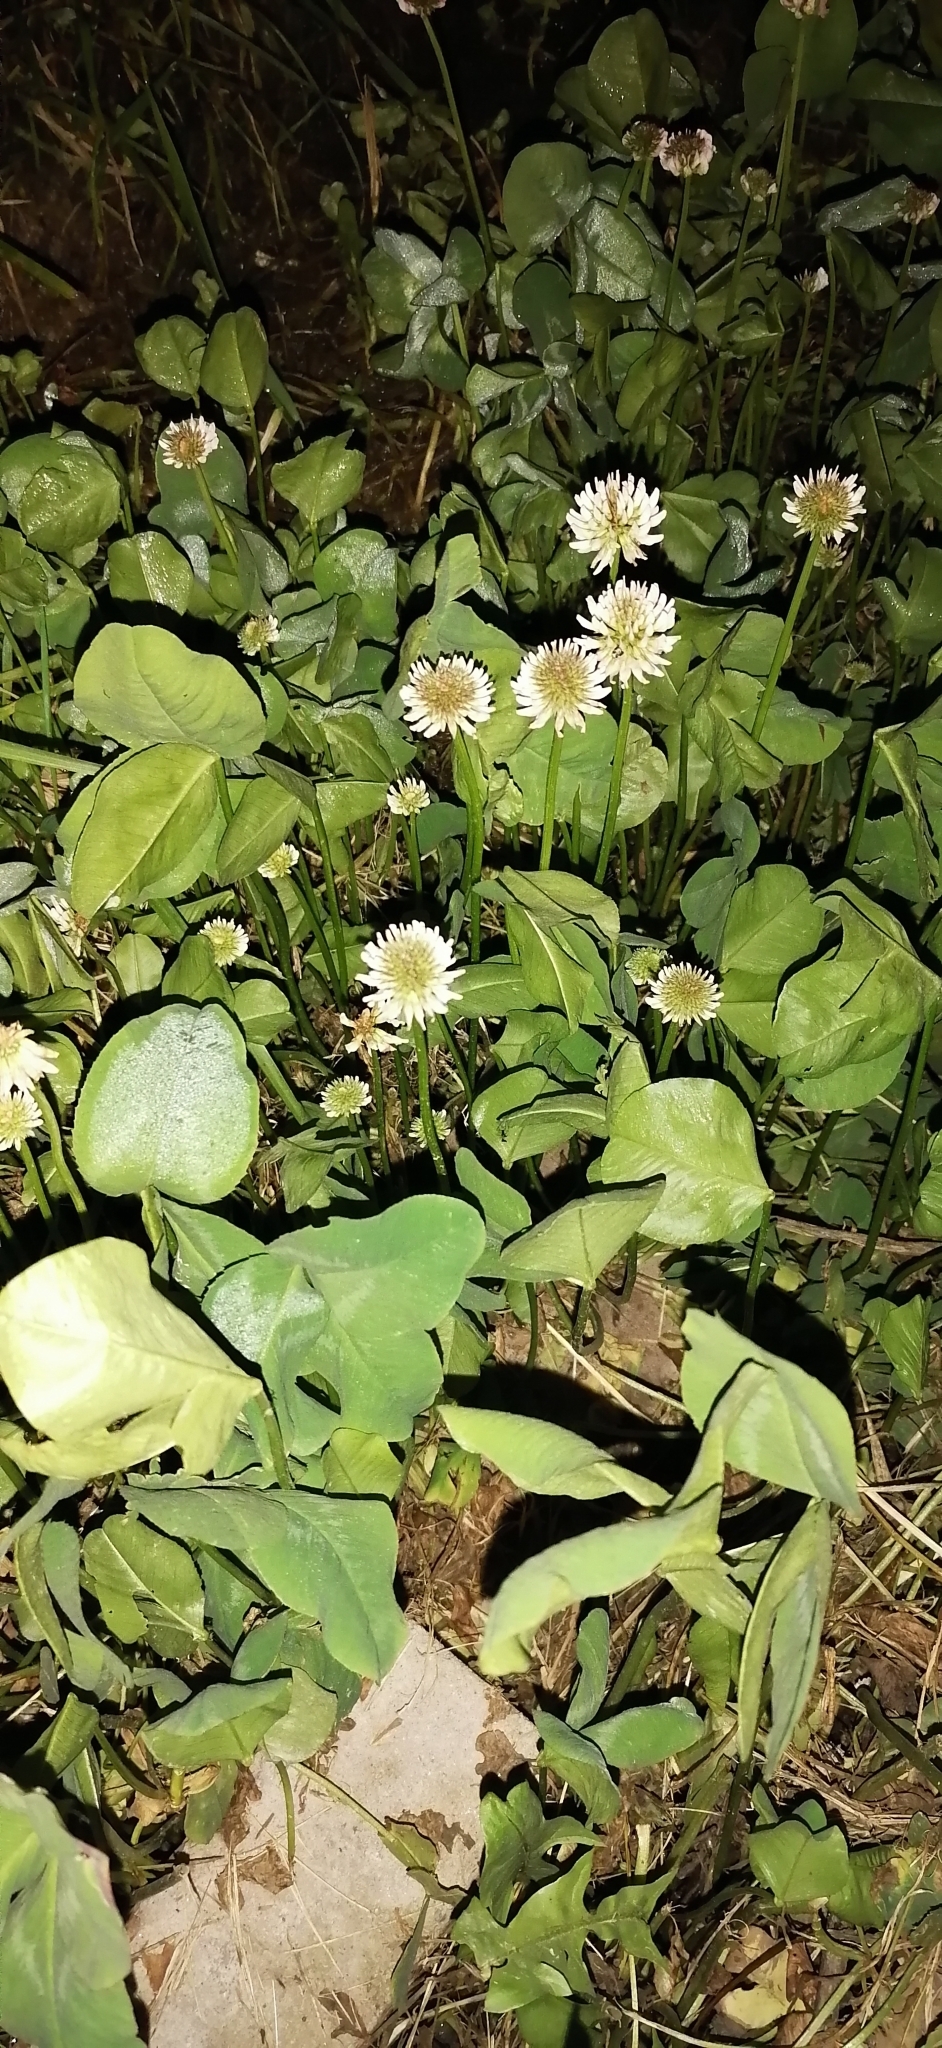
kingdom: Plantae
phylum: Tracheophyta
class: Magnoliopsida
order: Fabales
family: Fabaceae
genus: Trifolium
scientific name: Trifolium repens
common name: White clover
